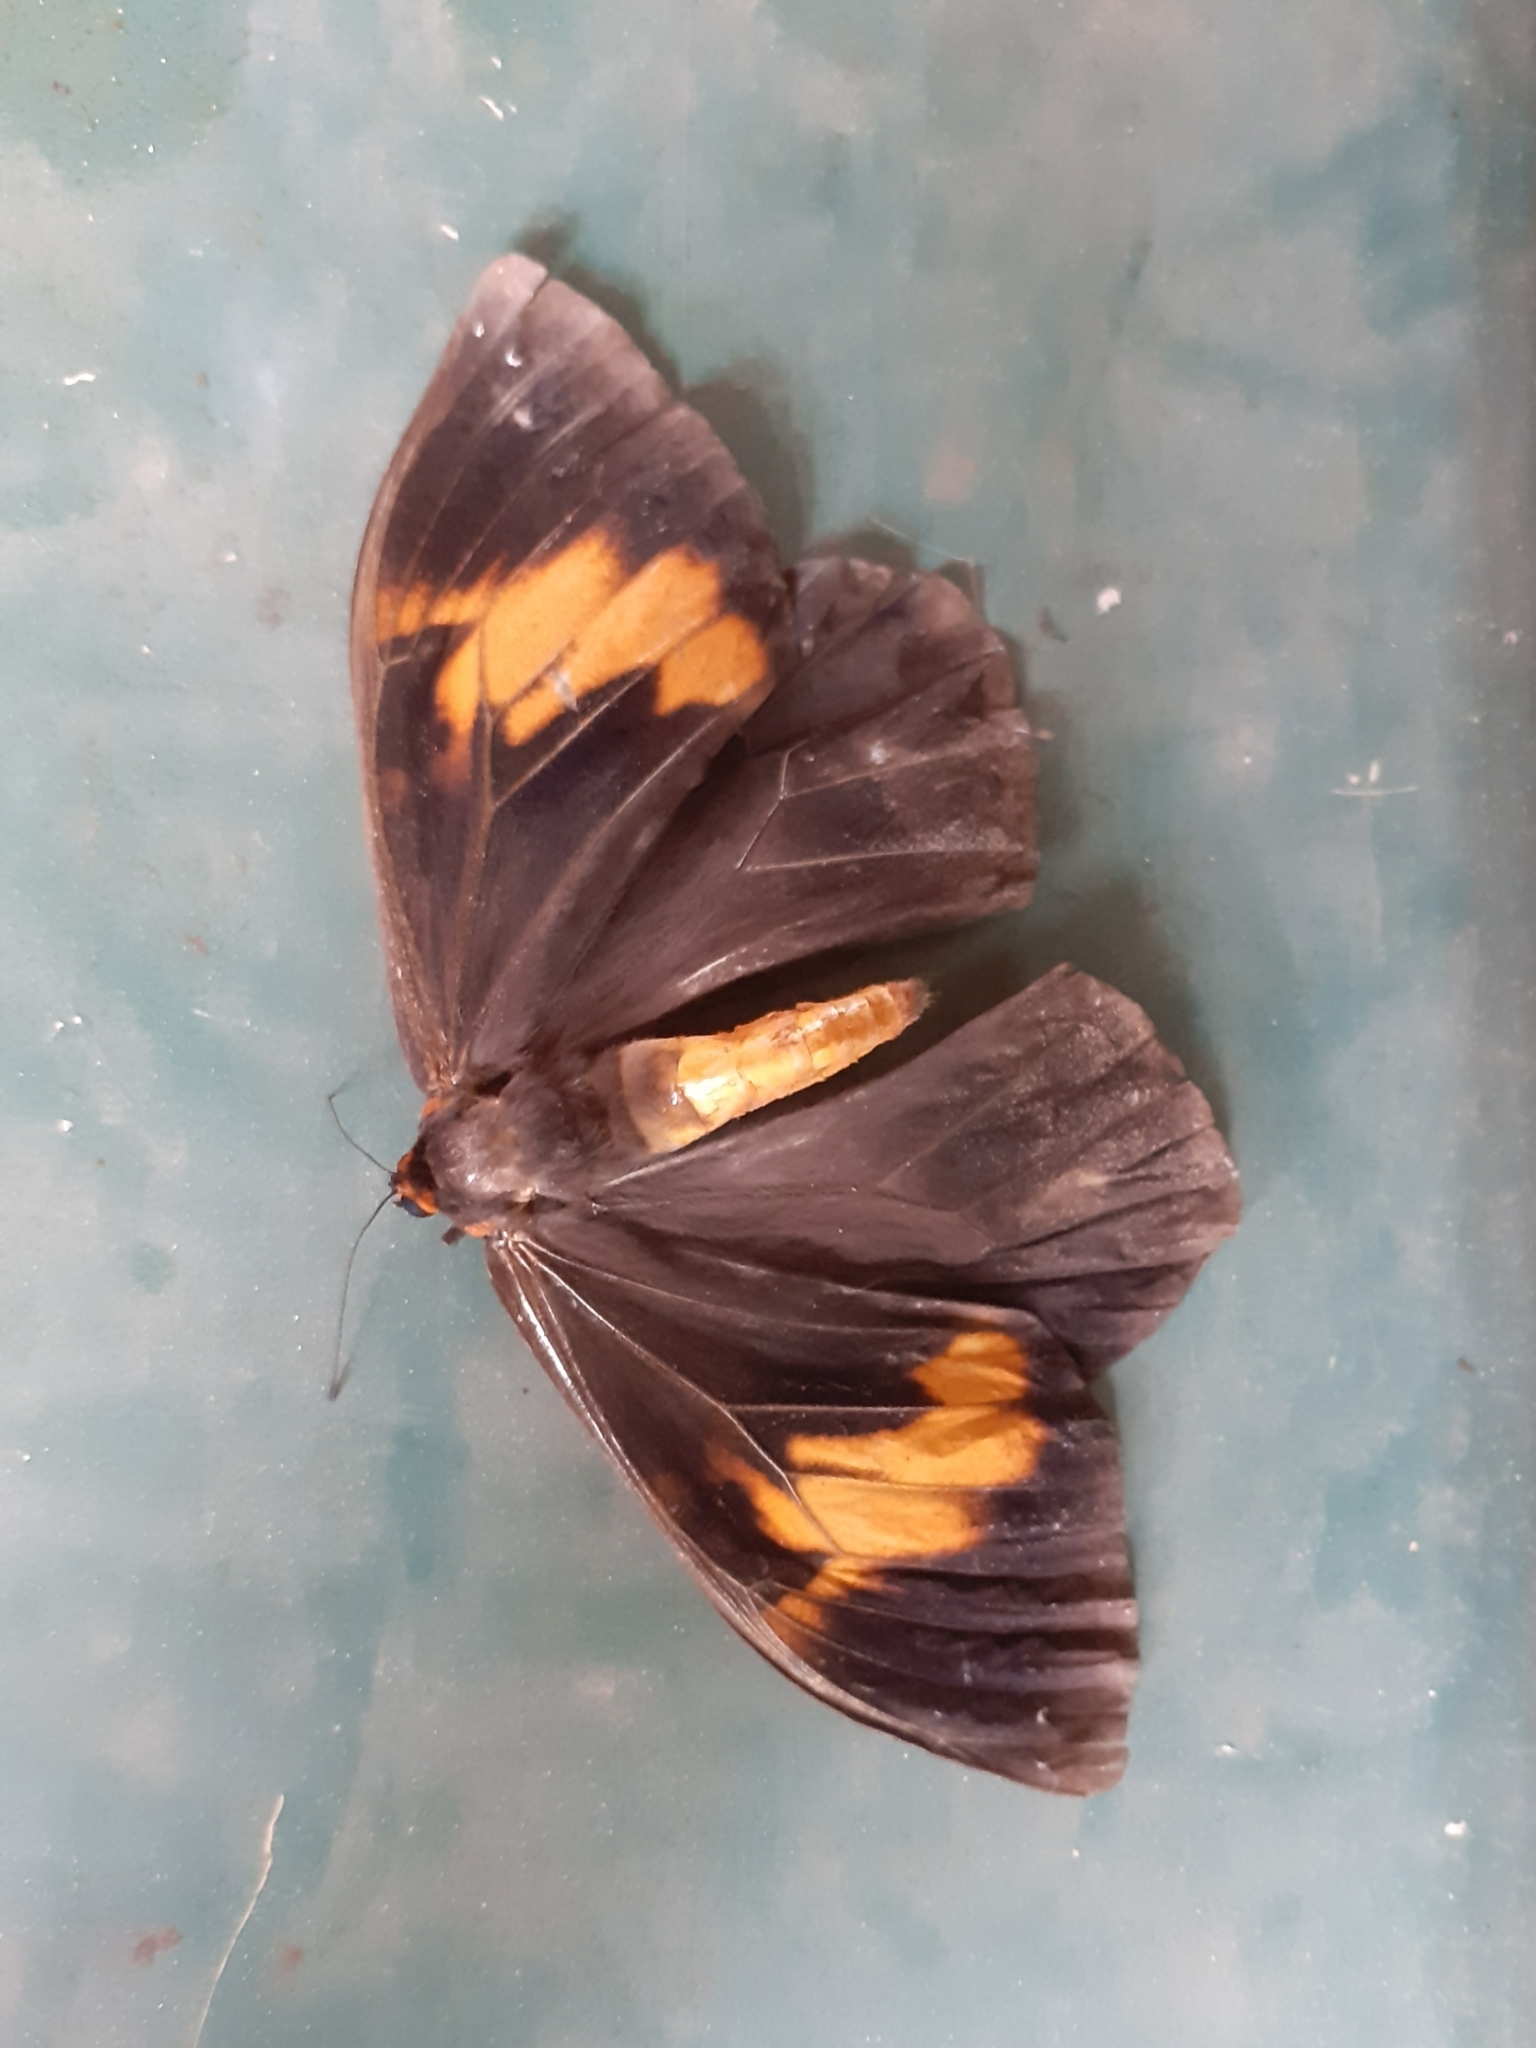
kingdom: Animalia
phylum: Arthropoda
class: Insecta
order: Lepidoptera
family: Nymphalidae
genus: Brassolis
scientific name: Brassolis astyra
